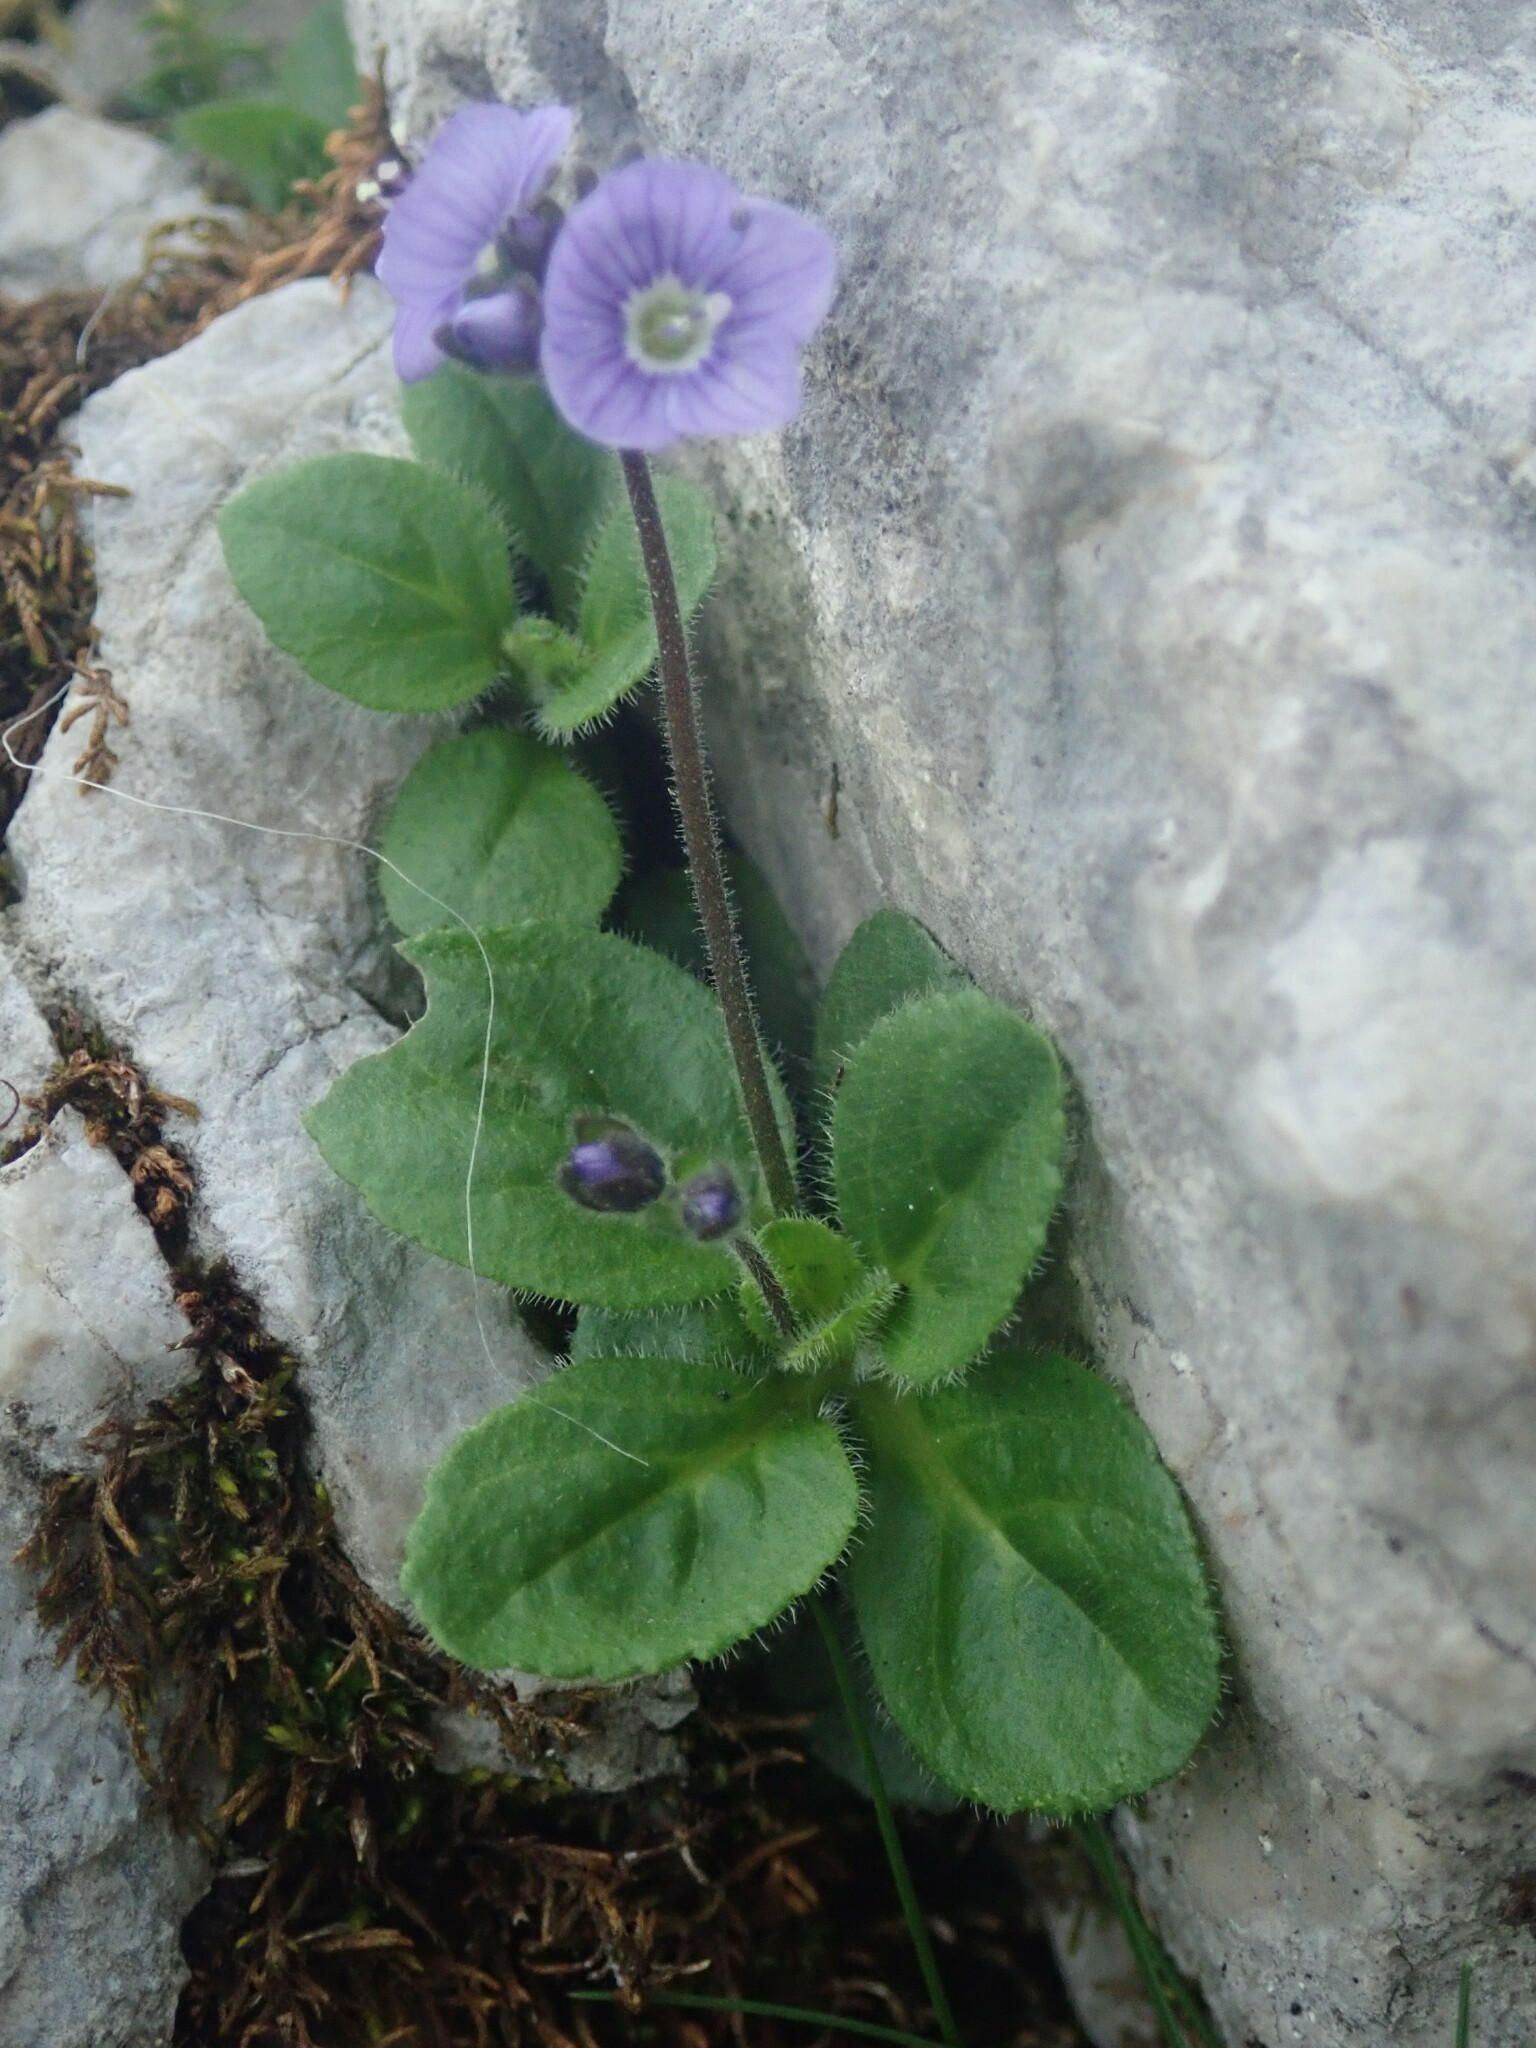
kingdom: Plantae
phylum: Tracheophyta
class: Magnoliopsida
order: Lamiales
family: Plantaginaceae
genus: Veronica
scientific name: Veronica aphylla
